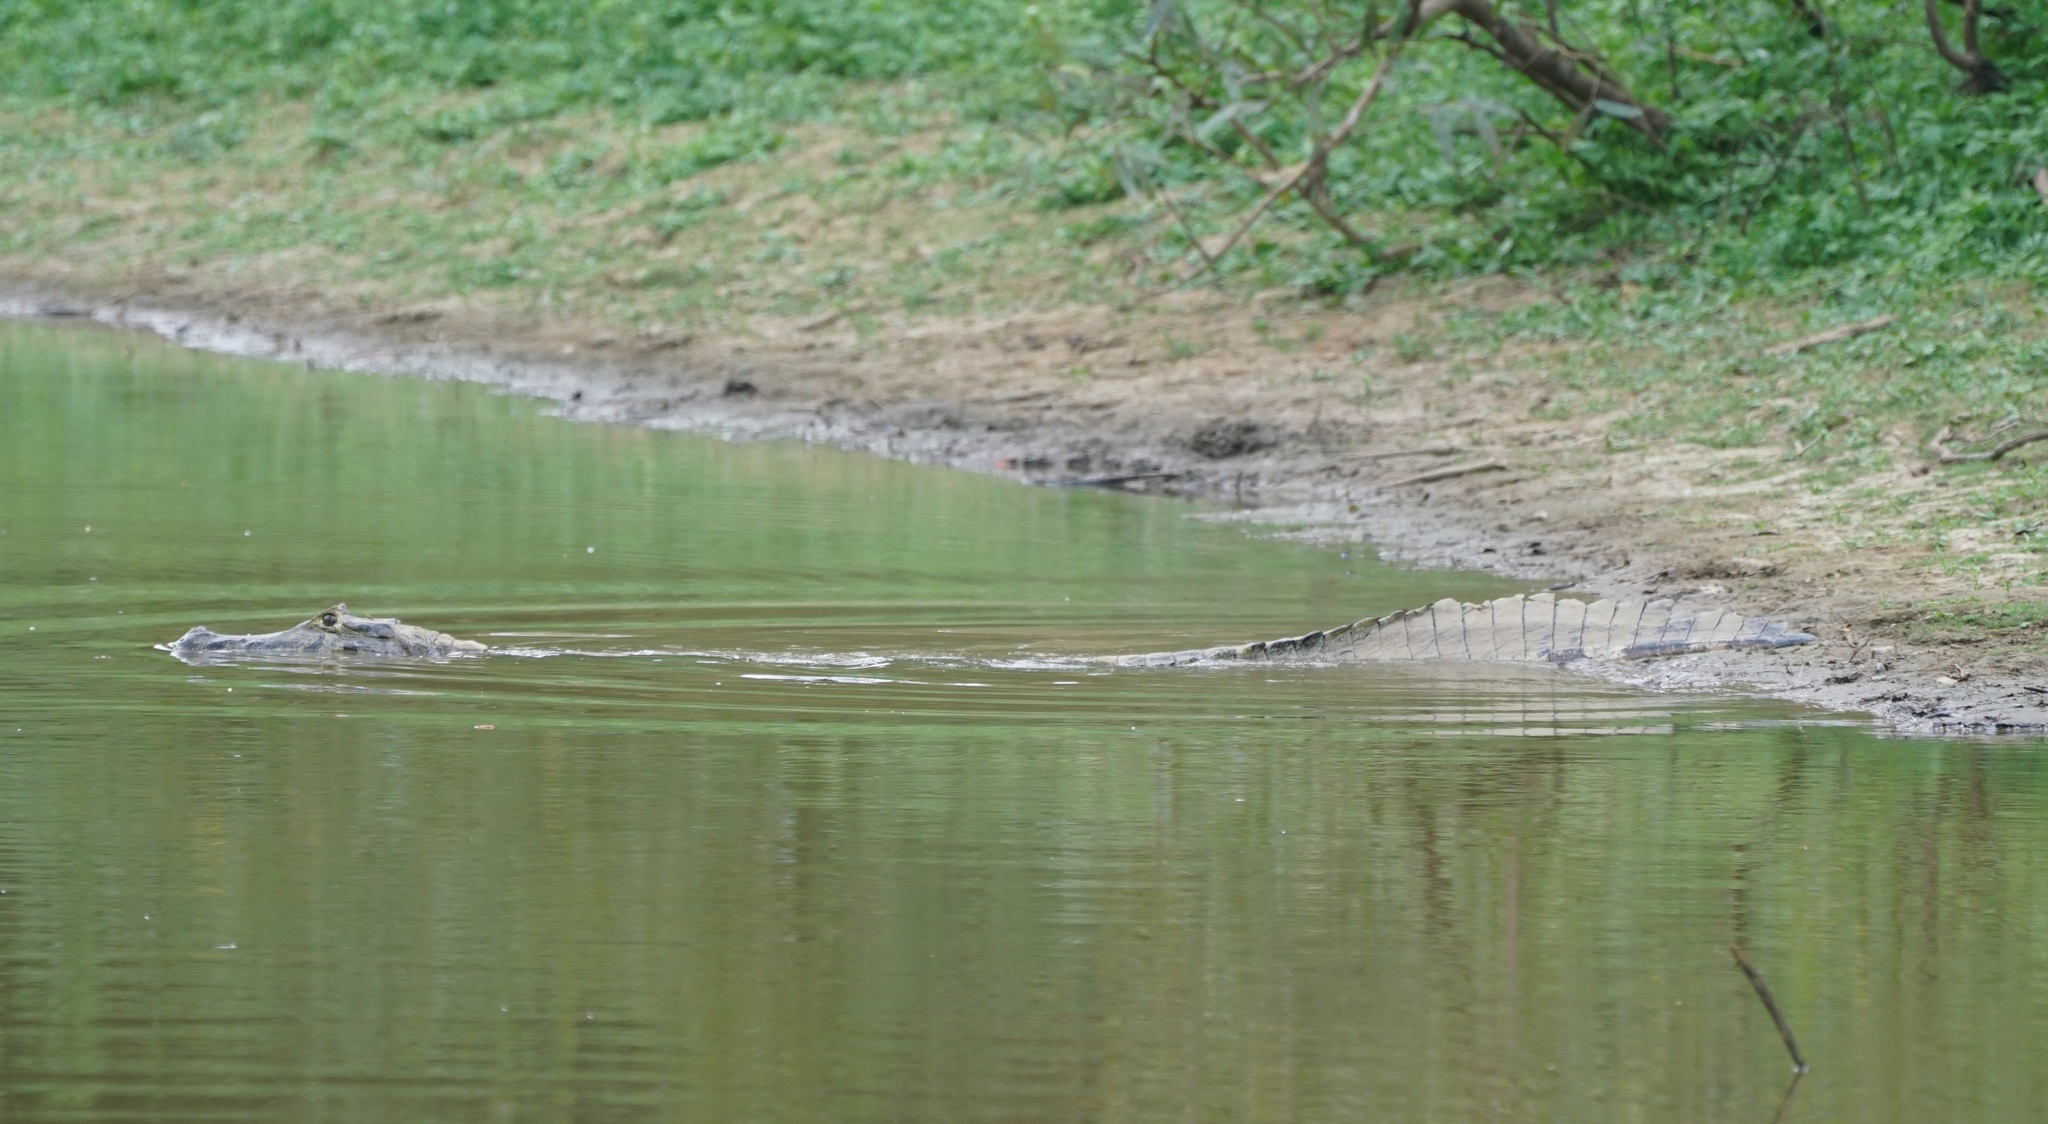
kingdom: Animalia
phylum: Chordata
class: Crocodylia
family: Alligatoridae
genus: Caiman
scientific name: Caiman yacare
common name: Yacare caiman
